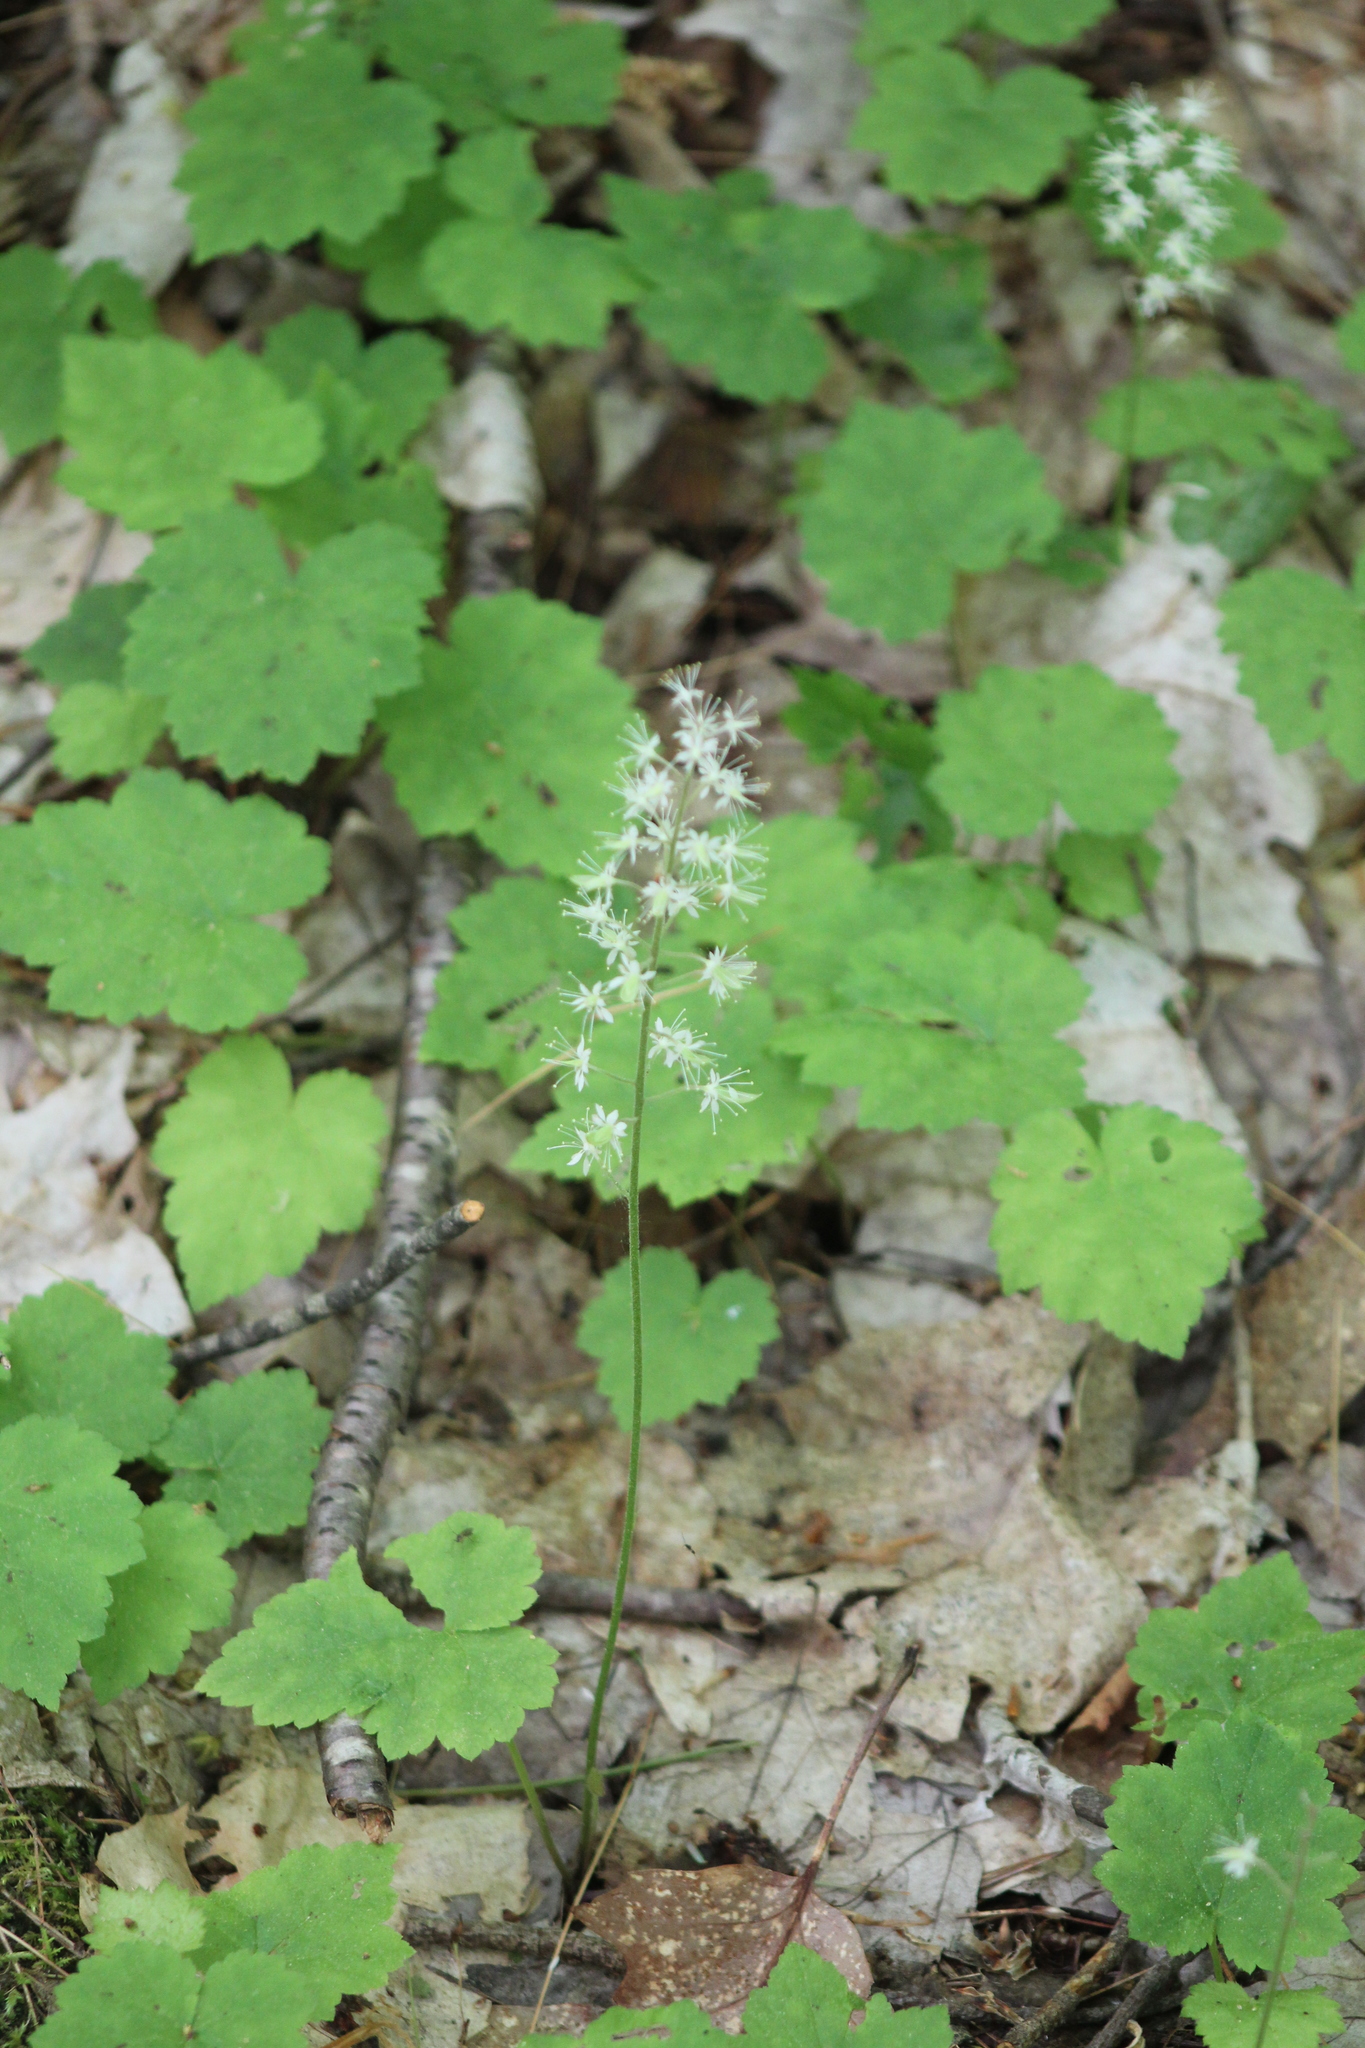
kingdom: Plantae
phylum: Tracheophyta
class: Magnoliopsida
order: Saxifragales
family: Saxifragaceae
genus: Tiarella
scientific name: Tiarella stolonifera
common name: Stoloniferous foamflower
